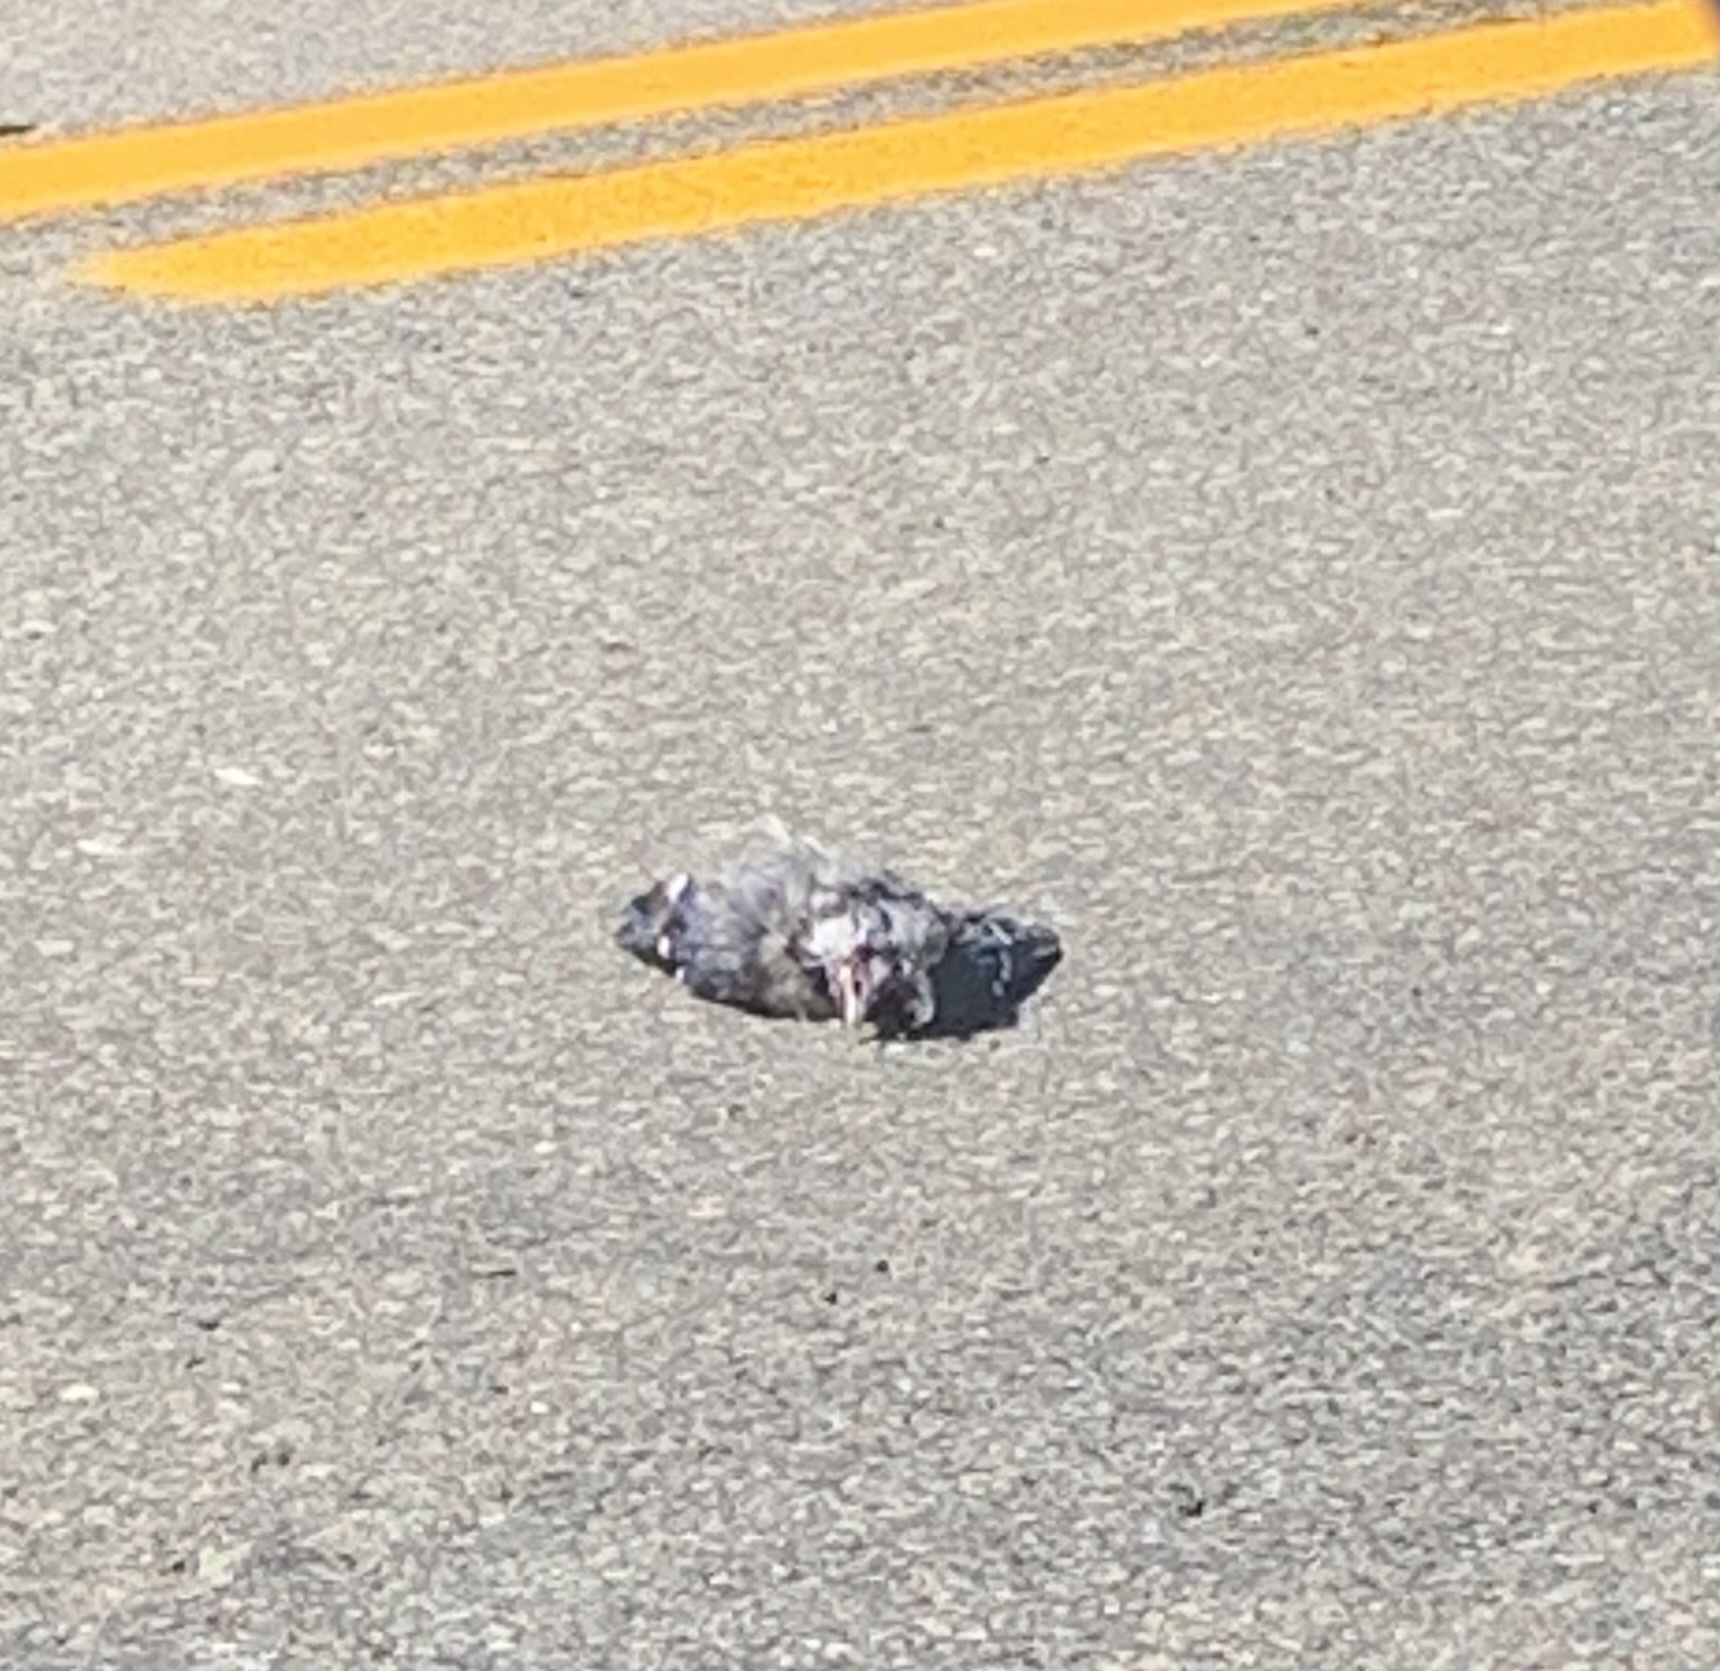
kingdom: Animalia
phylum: Chordata
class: Aves
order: Passeriformes
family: Corvidae
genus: Cyanocitta
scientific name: Cyanocitta cristata
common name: Blue jay
